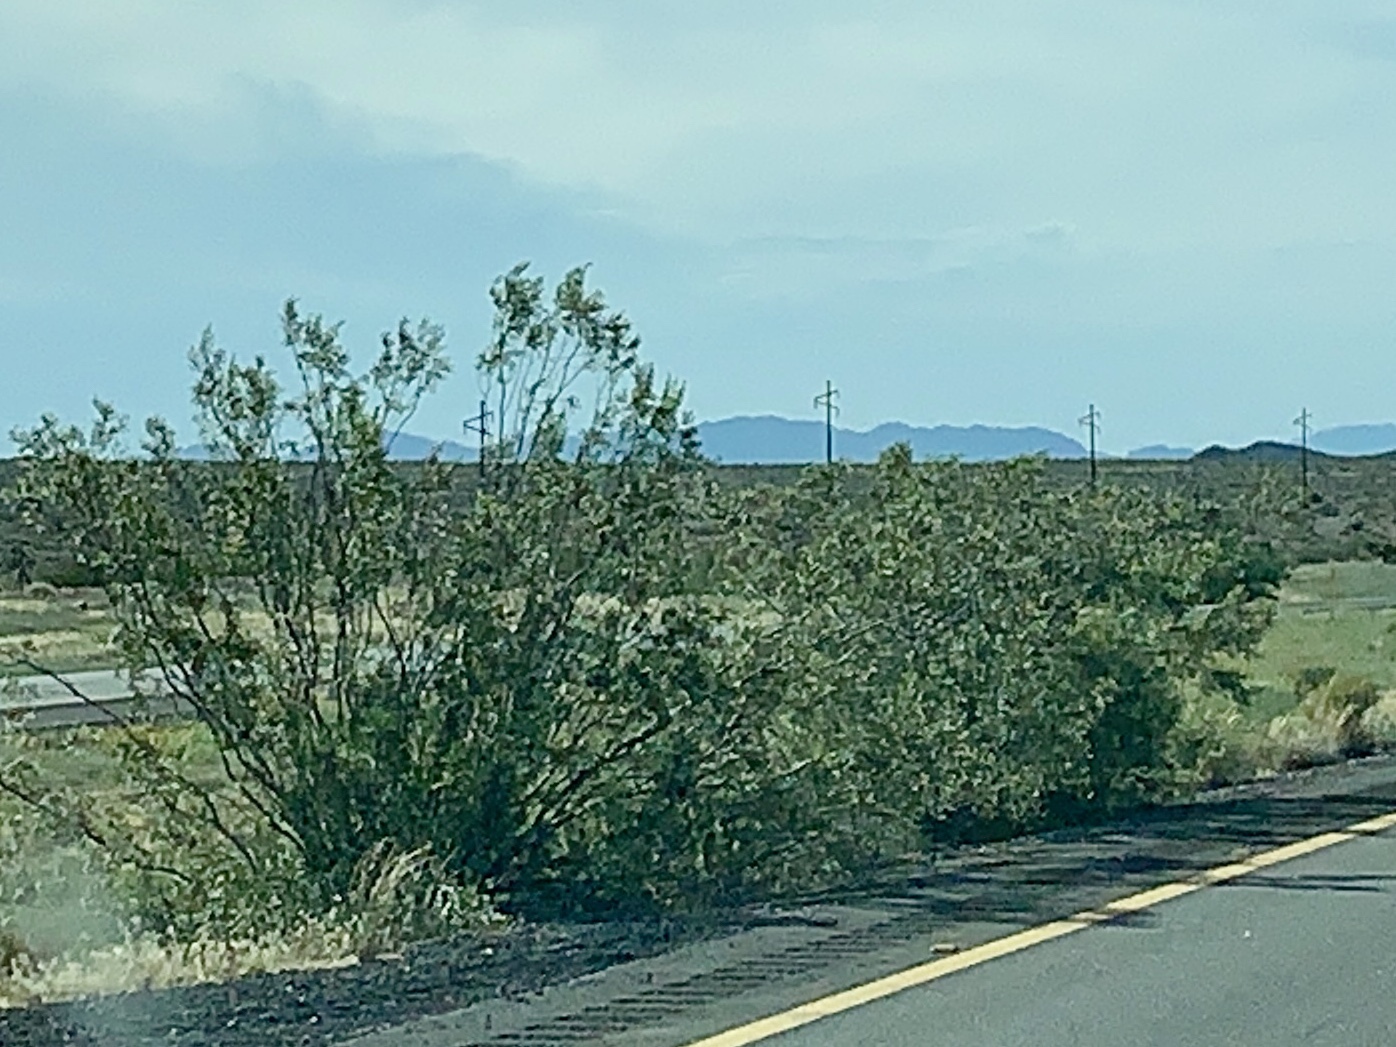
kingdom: Plantae
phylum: Tracheophyta
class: Magnoliopsida
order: Zygophyllales
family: Zygophyllaceae
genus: Larrea
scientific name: Larrea tridentata
